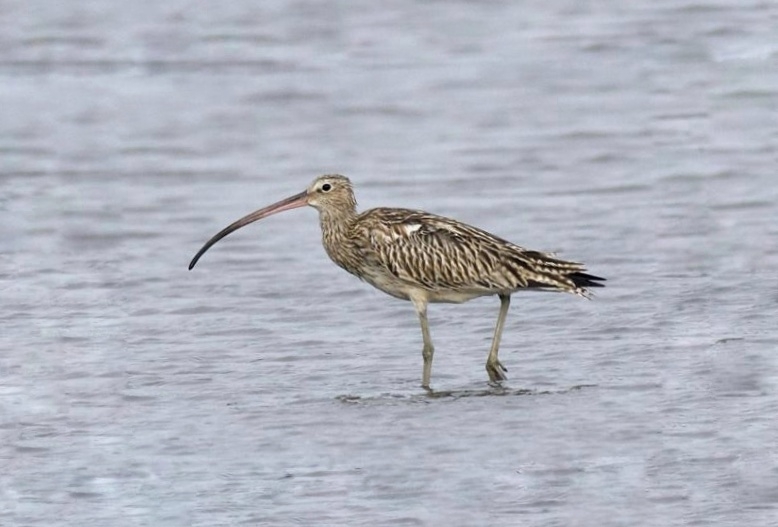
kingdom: Animalia
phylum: Chordata
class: Aves
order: Charadriiformes
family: Scolopacidae
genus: Numenius
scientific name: Numenius arquata
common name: Eurasian curlew
